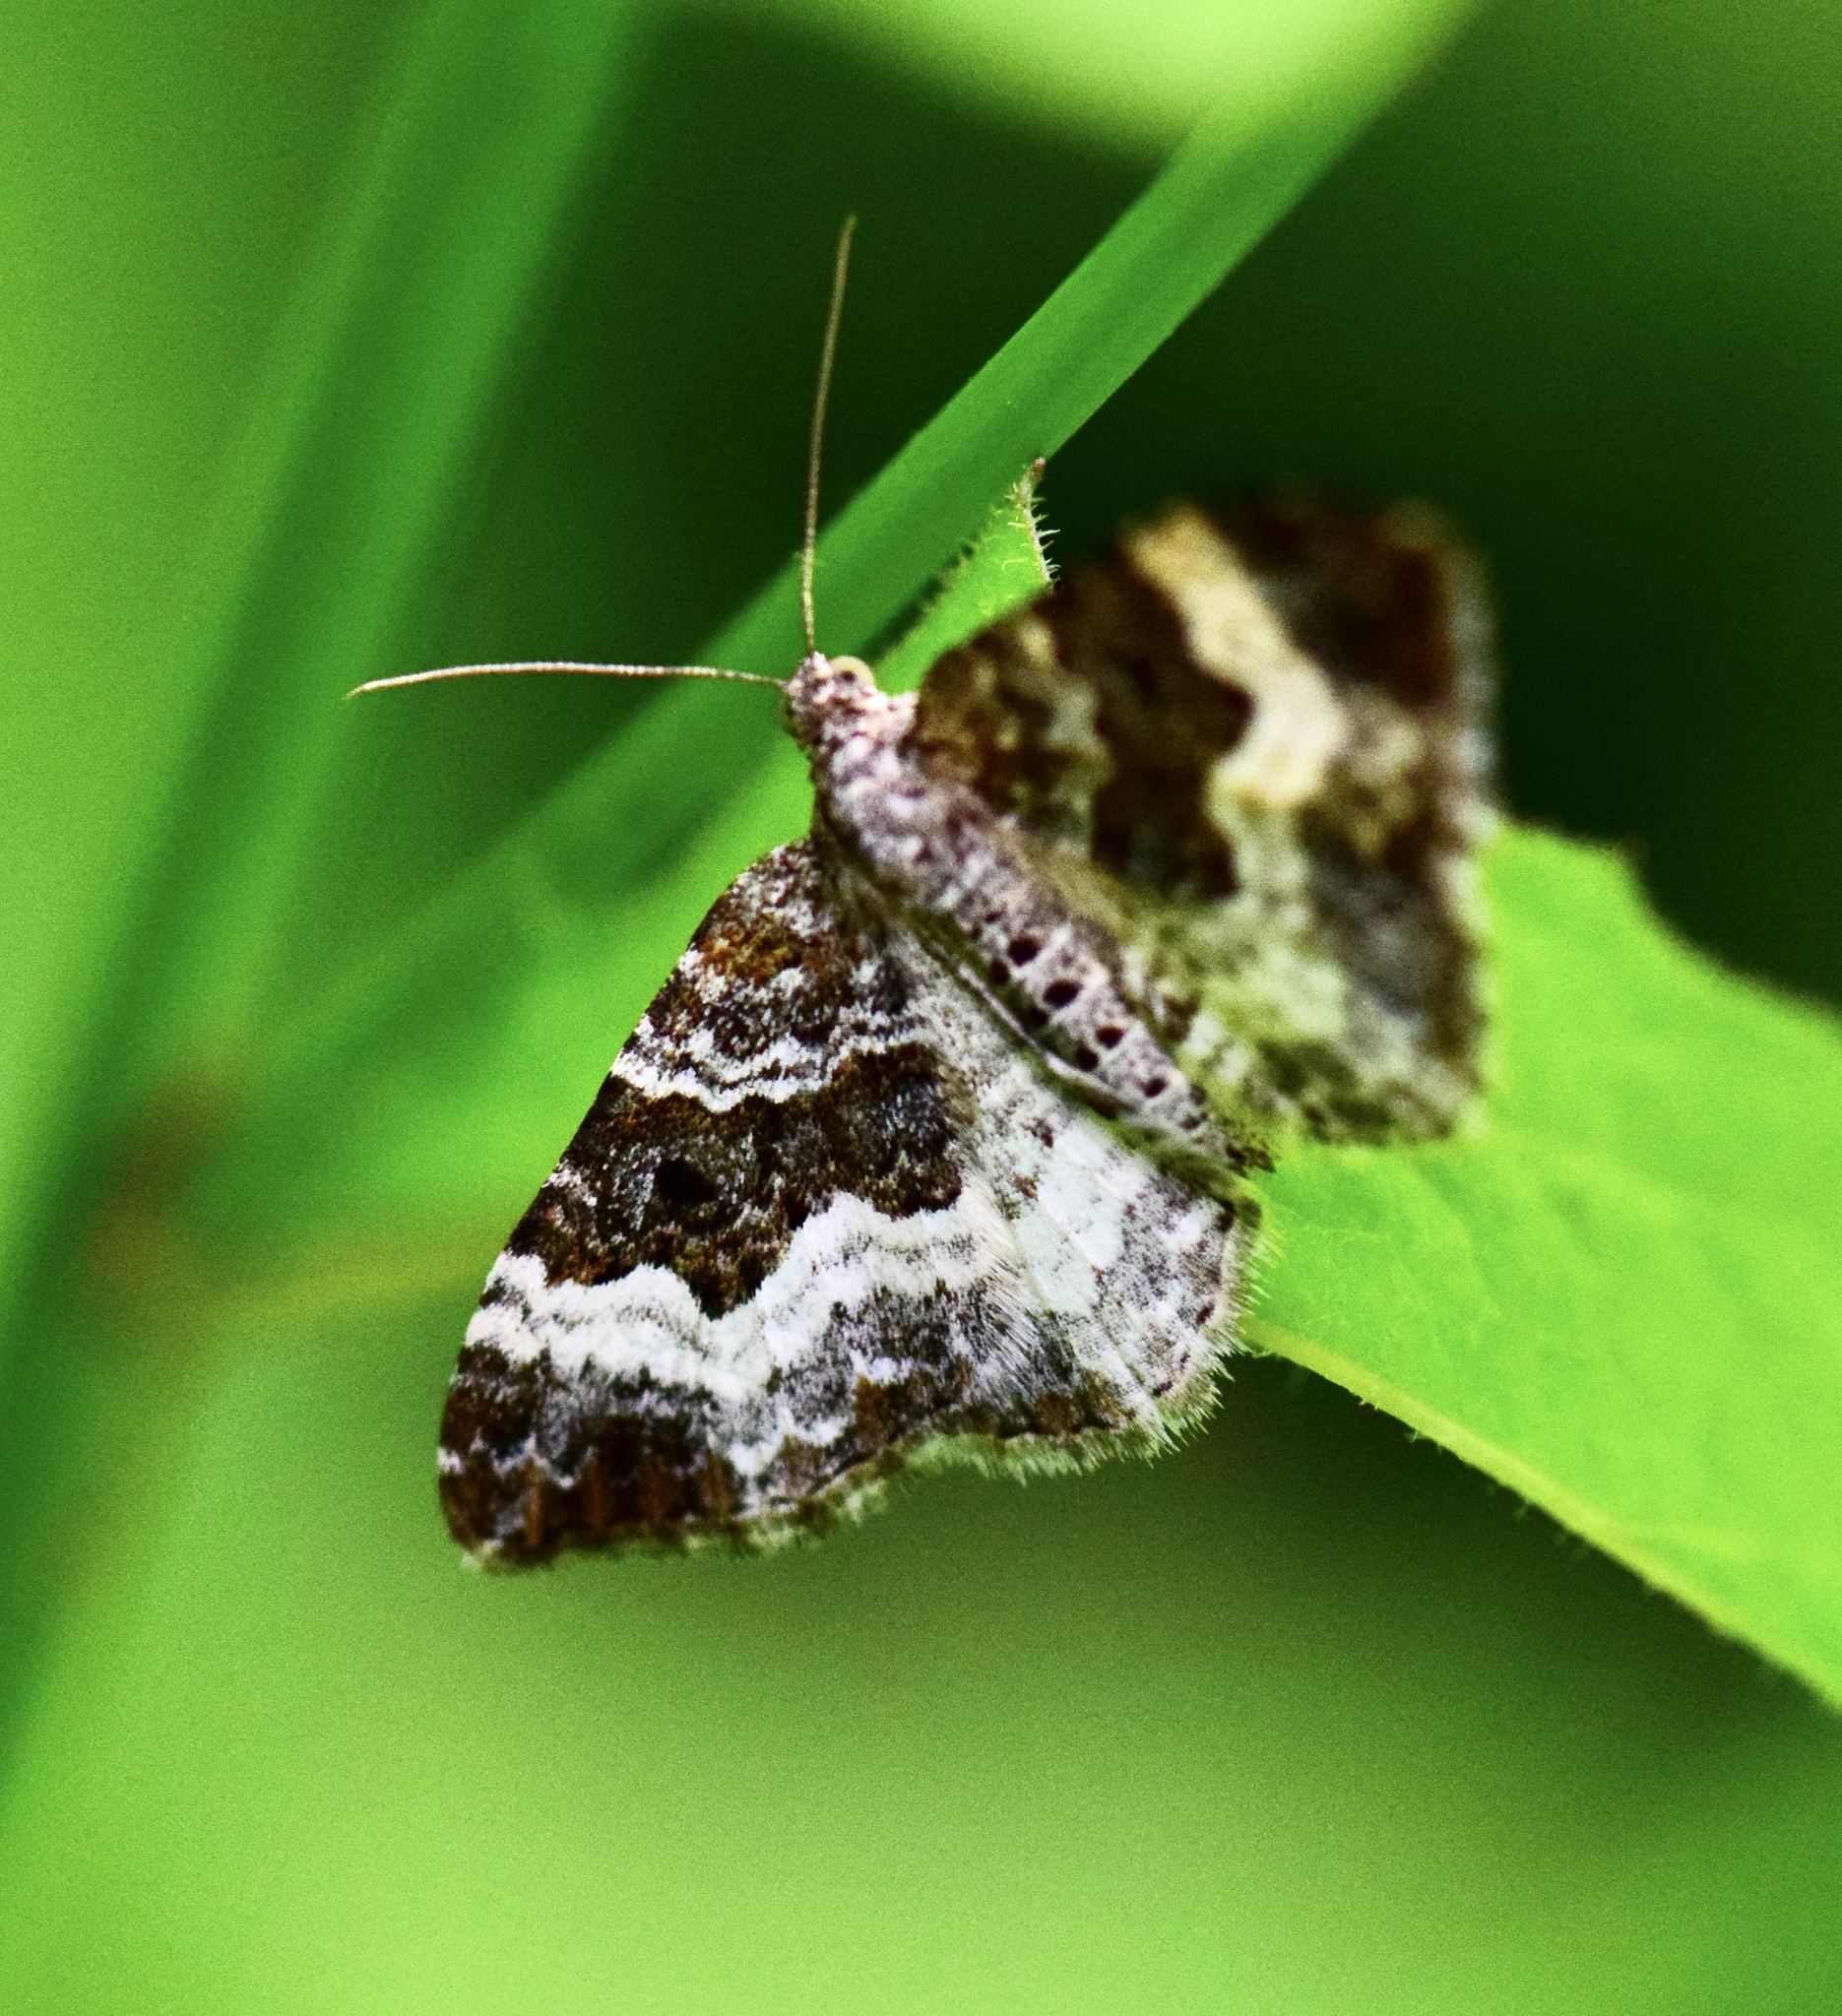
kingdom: Animalia
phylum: Arthropoda
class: Insecta
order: Lepidoptera
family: Geometridae
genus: Epirrhoe
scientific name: Epirrhoe alternata
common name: Common carpet
